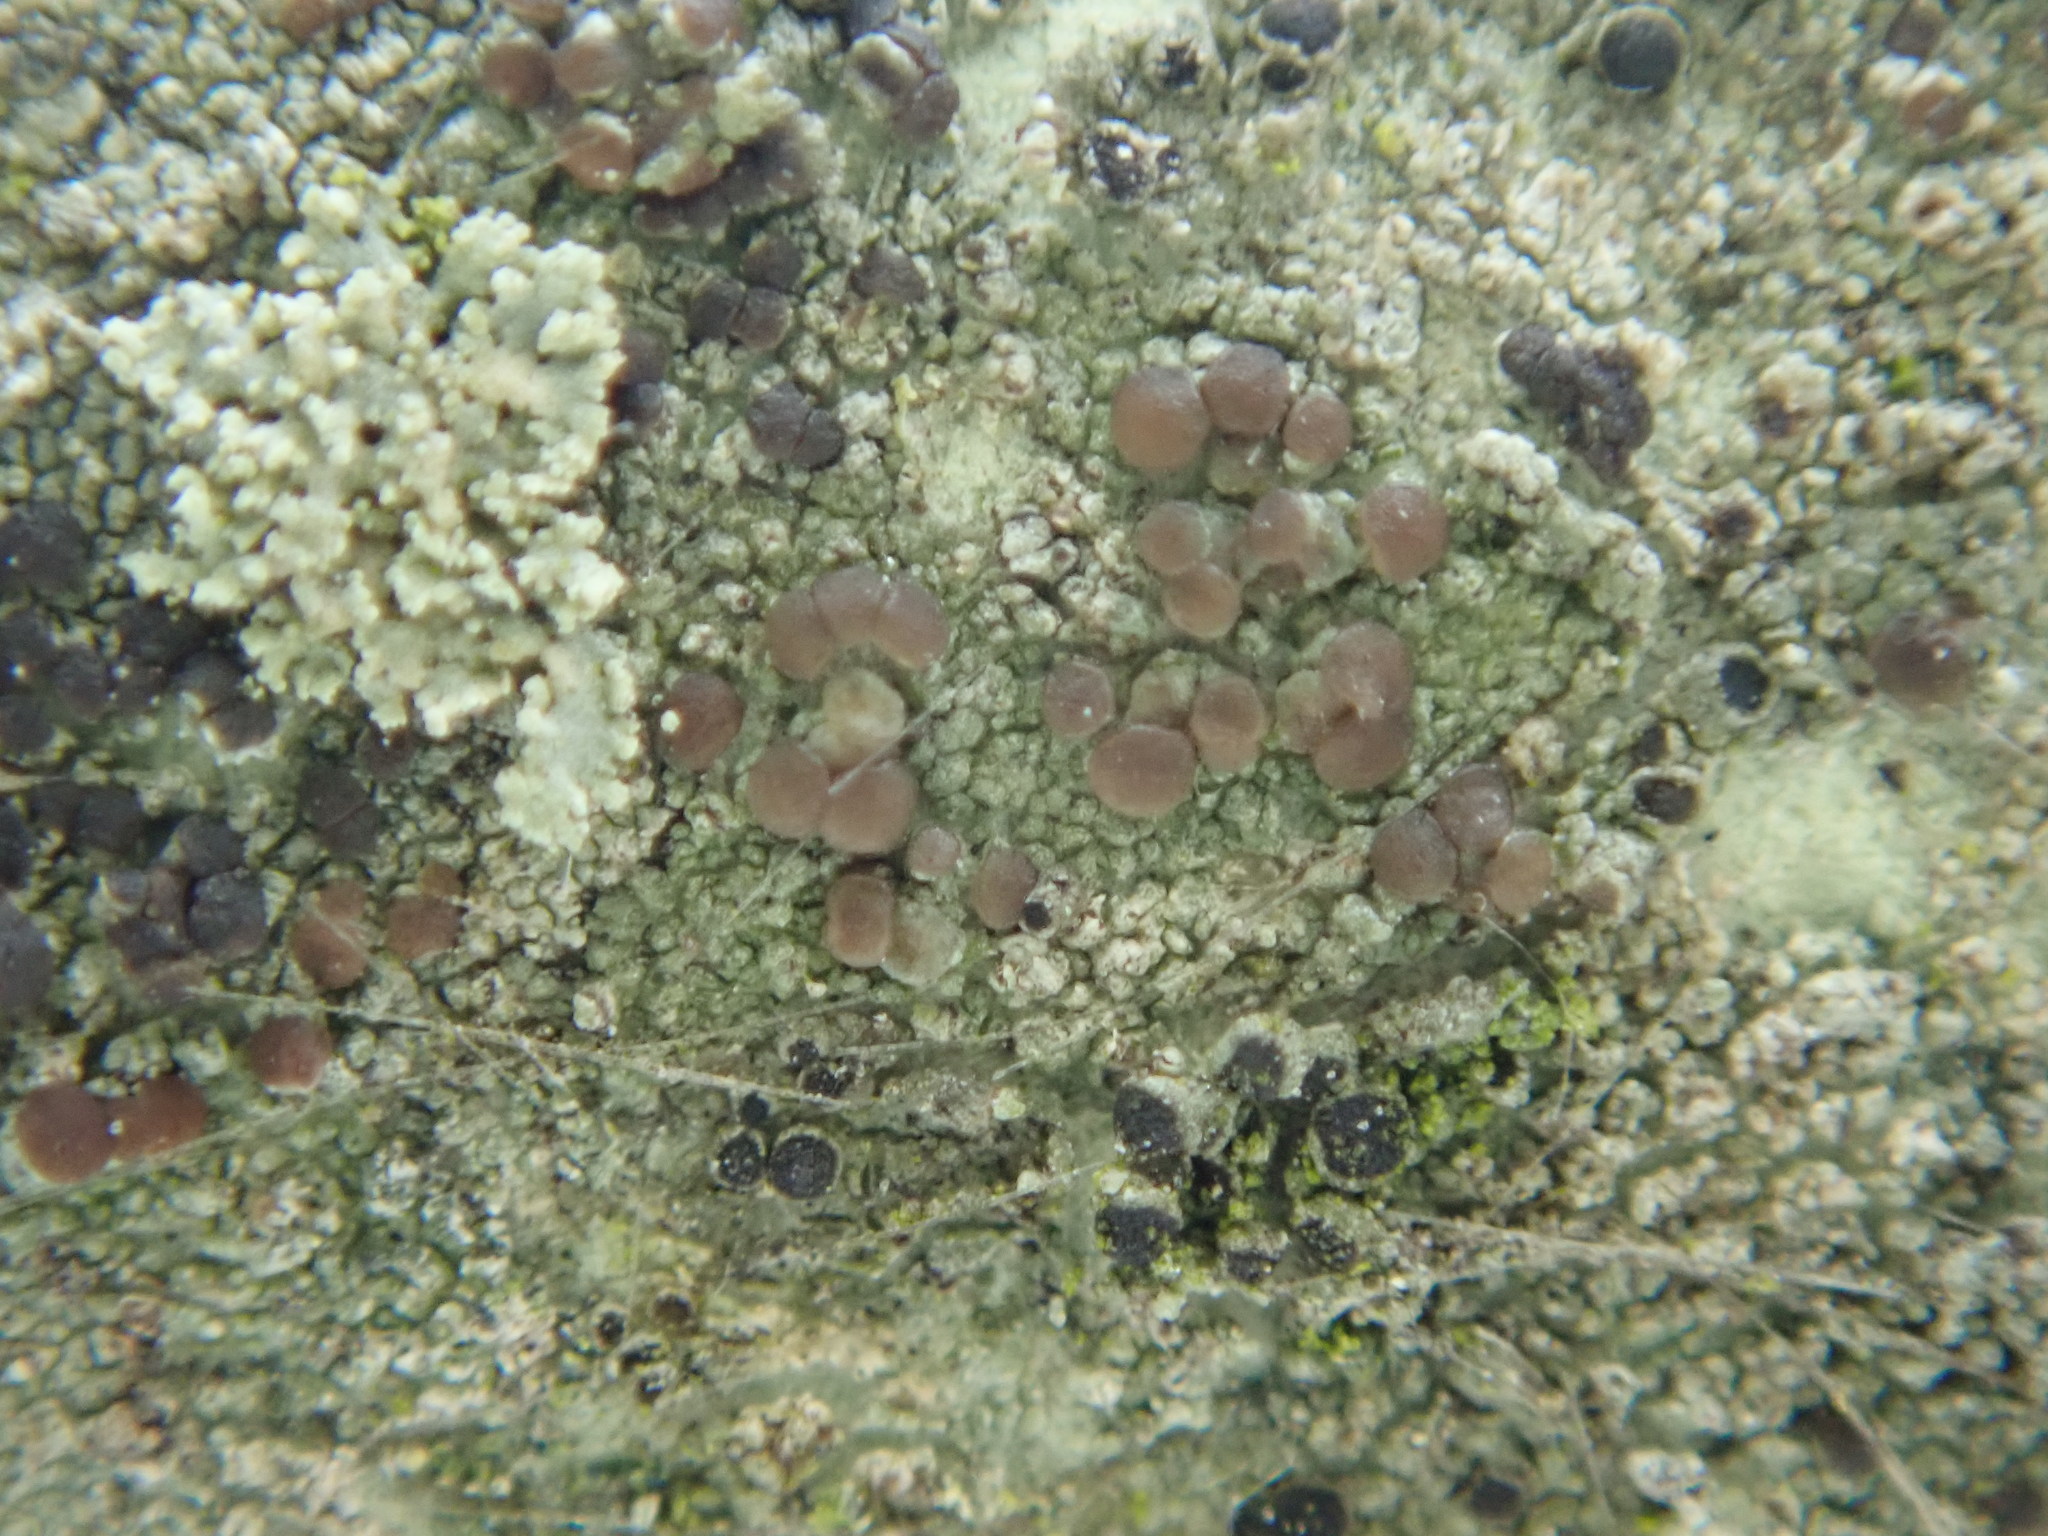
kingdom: Fungi
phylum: Ascomycota
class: Lecanoromycetes
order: Lecanorales
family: Lecanoraceae
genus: Traponora
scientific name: Traponora varians
